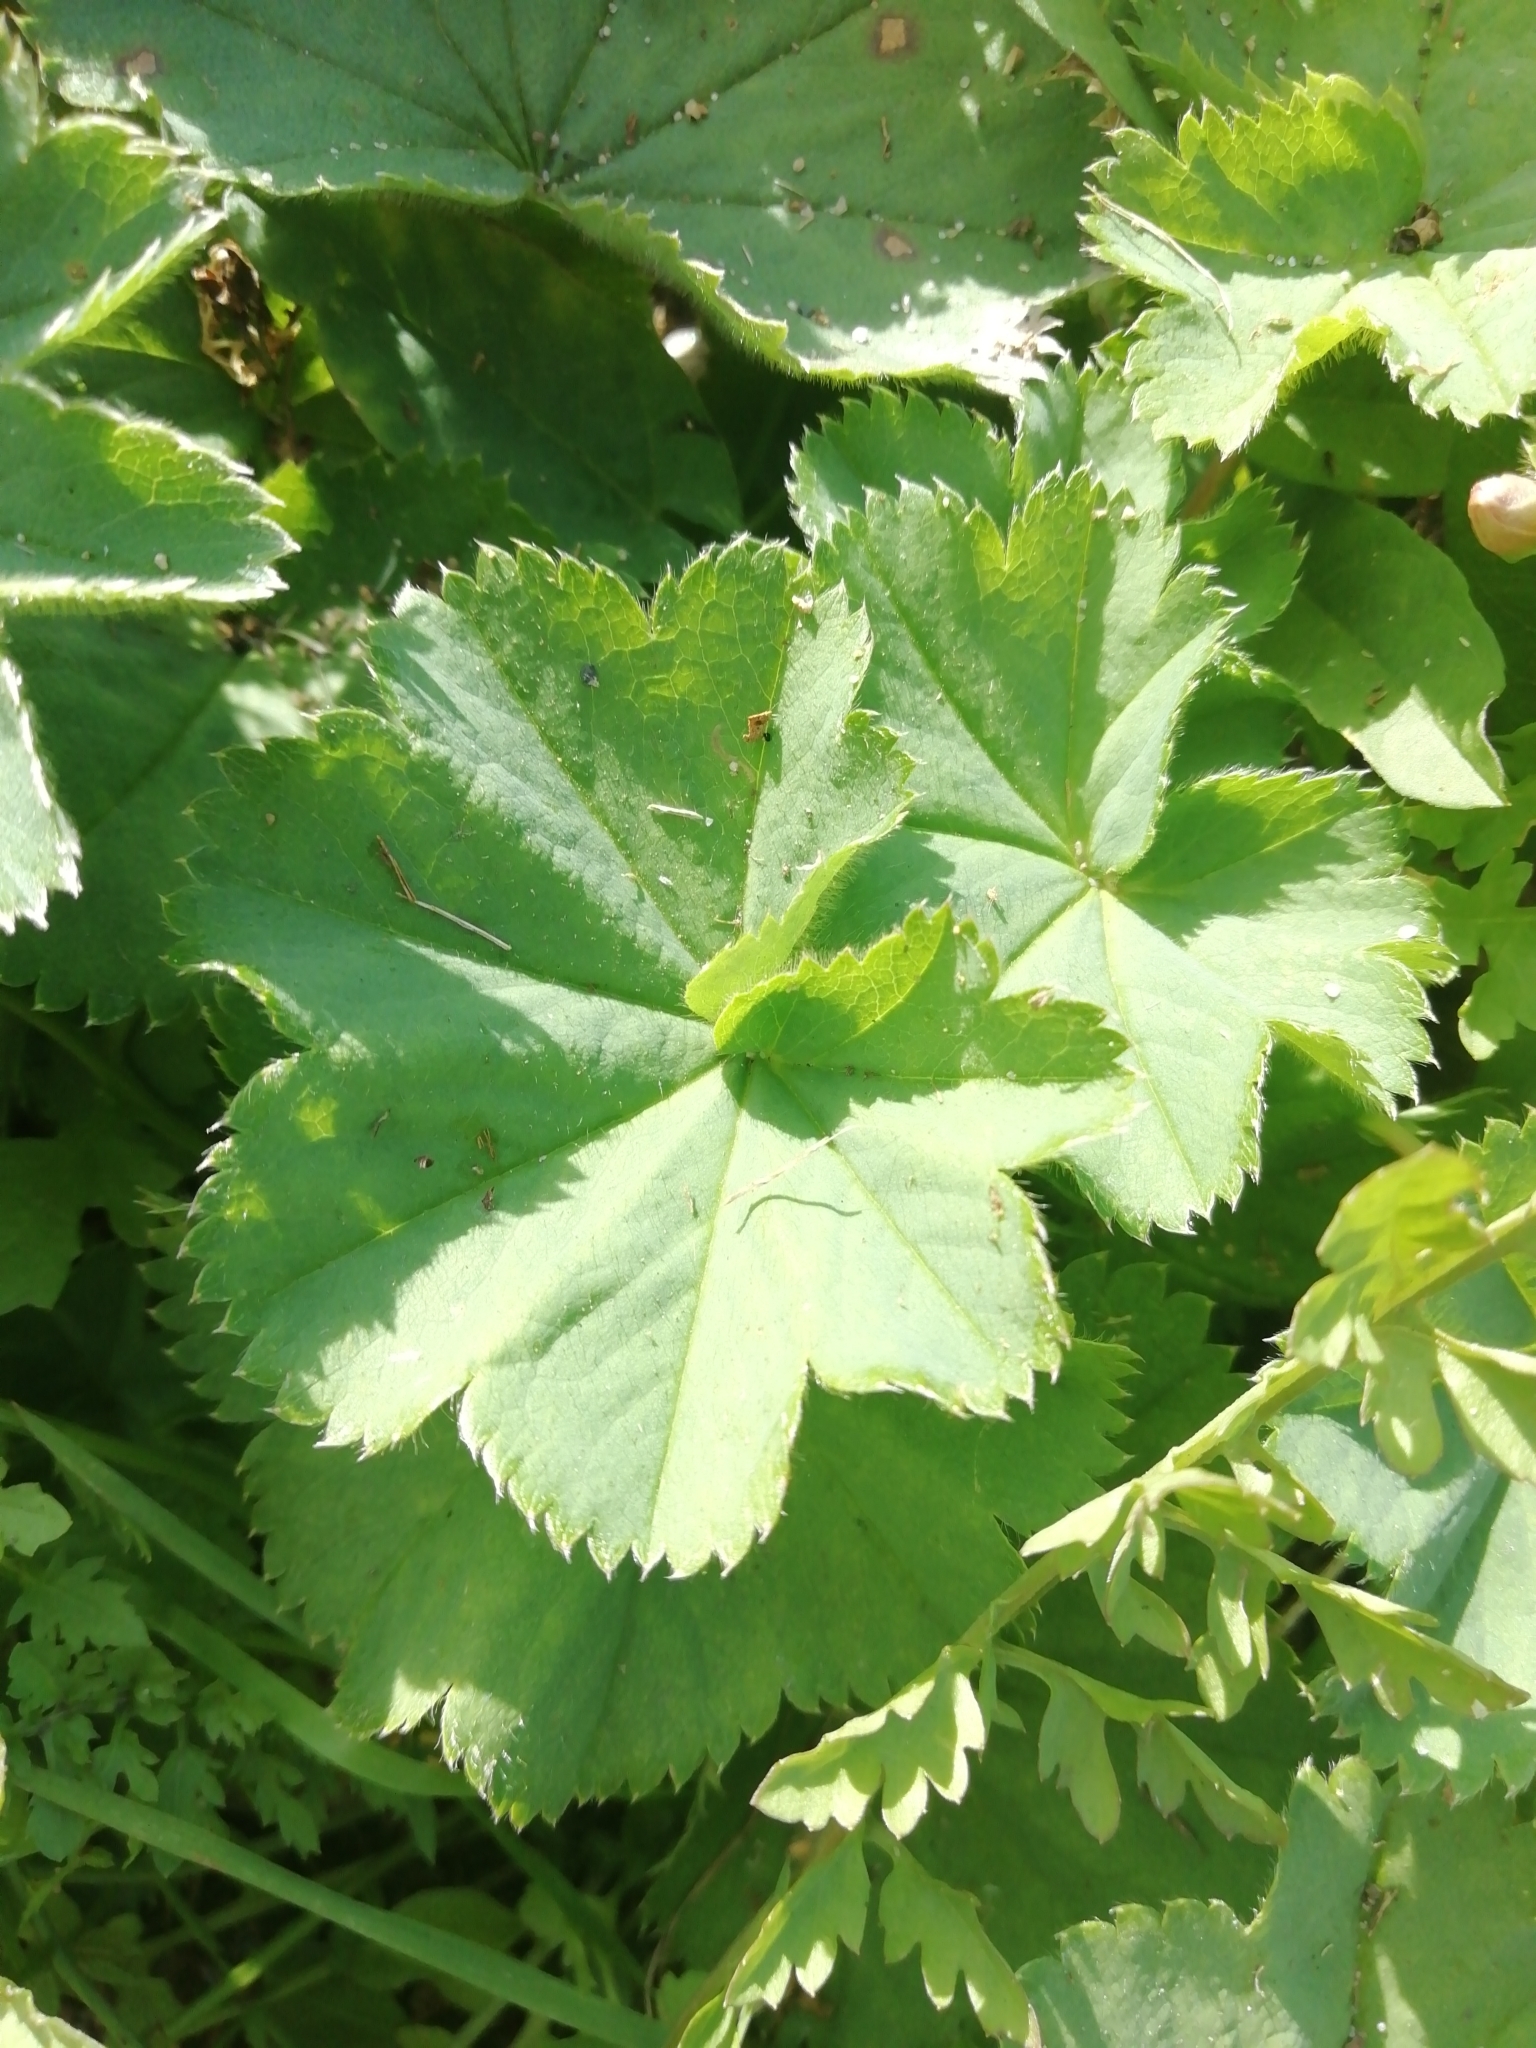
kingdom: Plantae
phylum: Tracheophyta
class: Magnoliopsida
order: Rosales
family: Rosaceae
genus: Alchemilla
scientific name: Alchemilla
